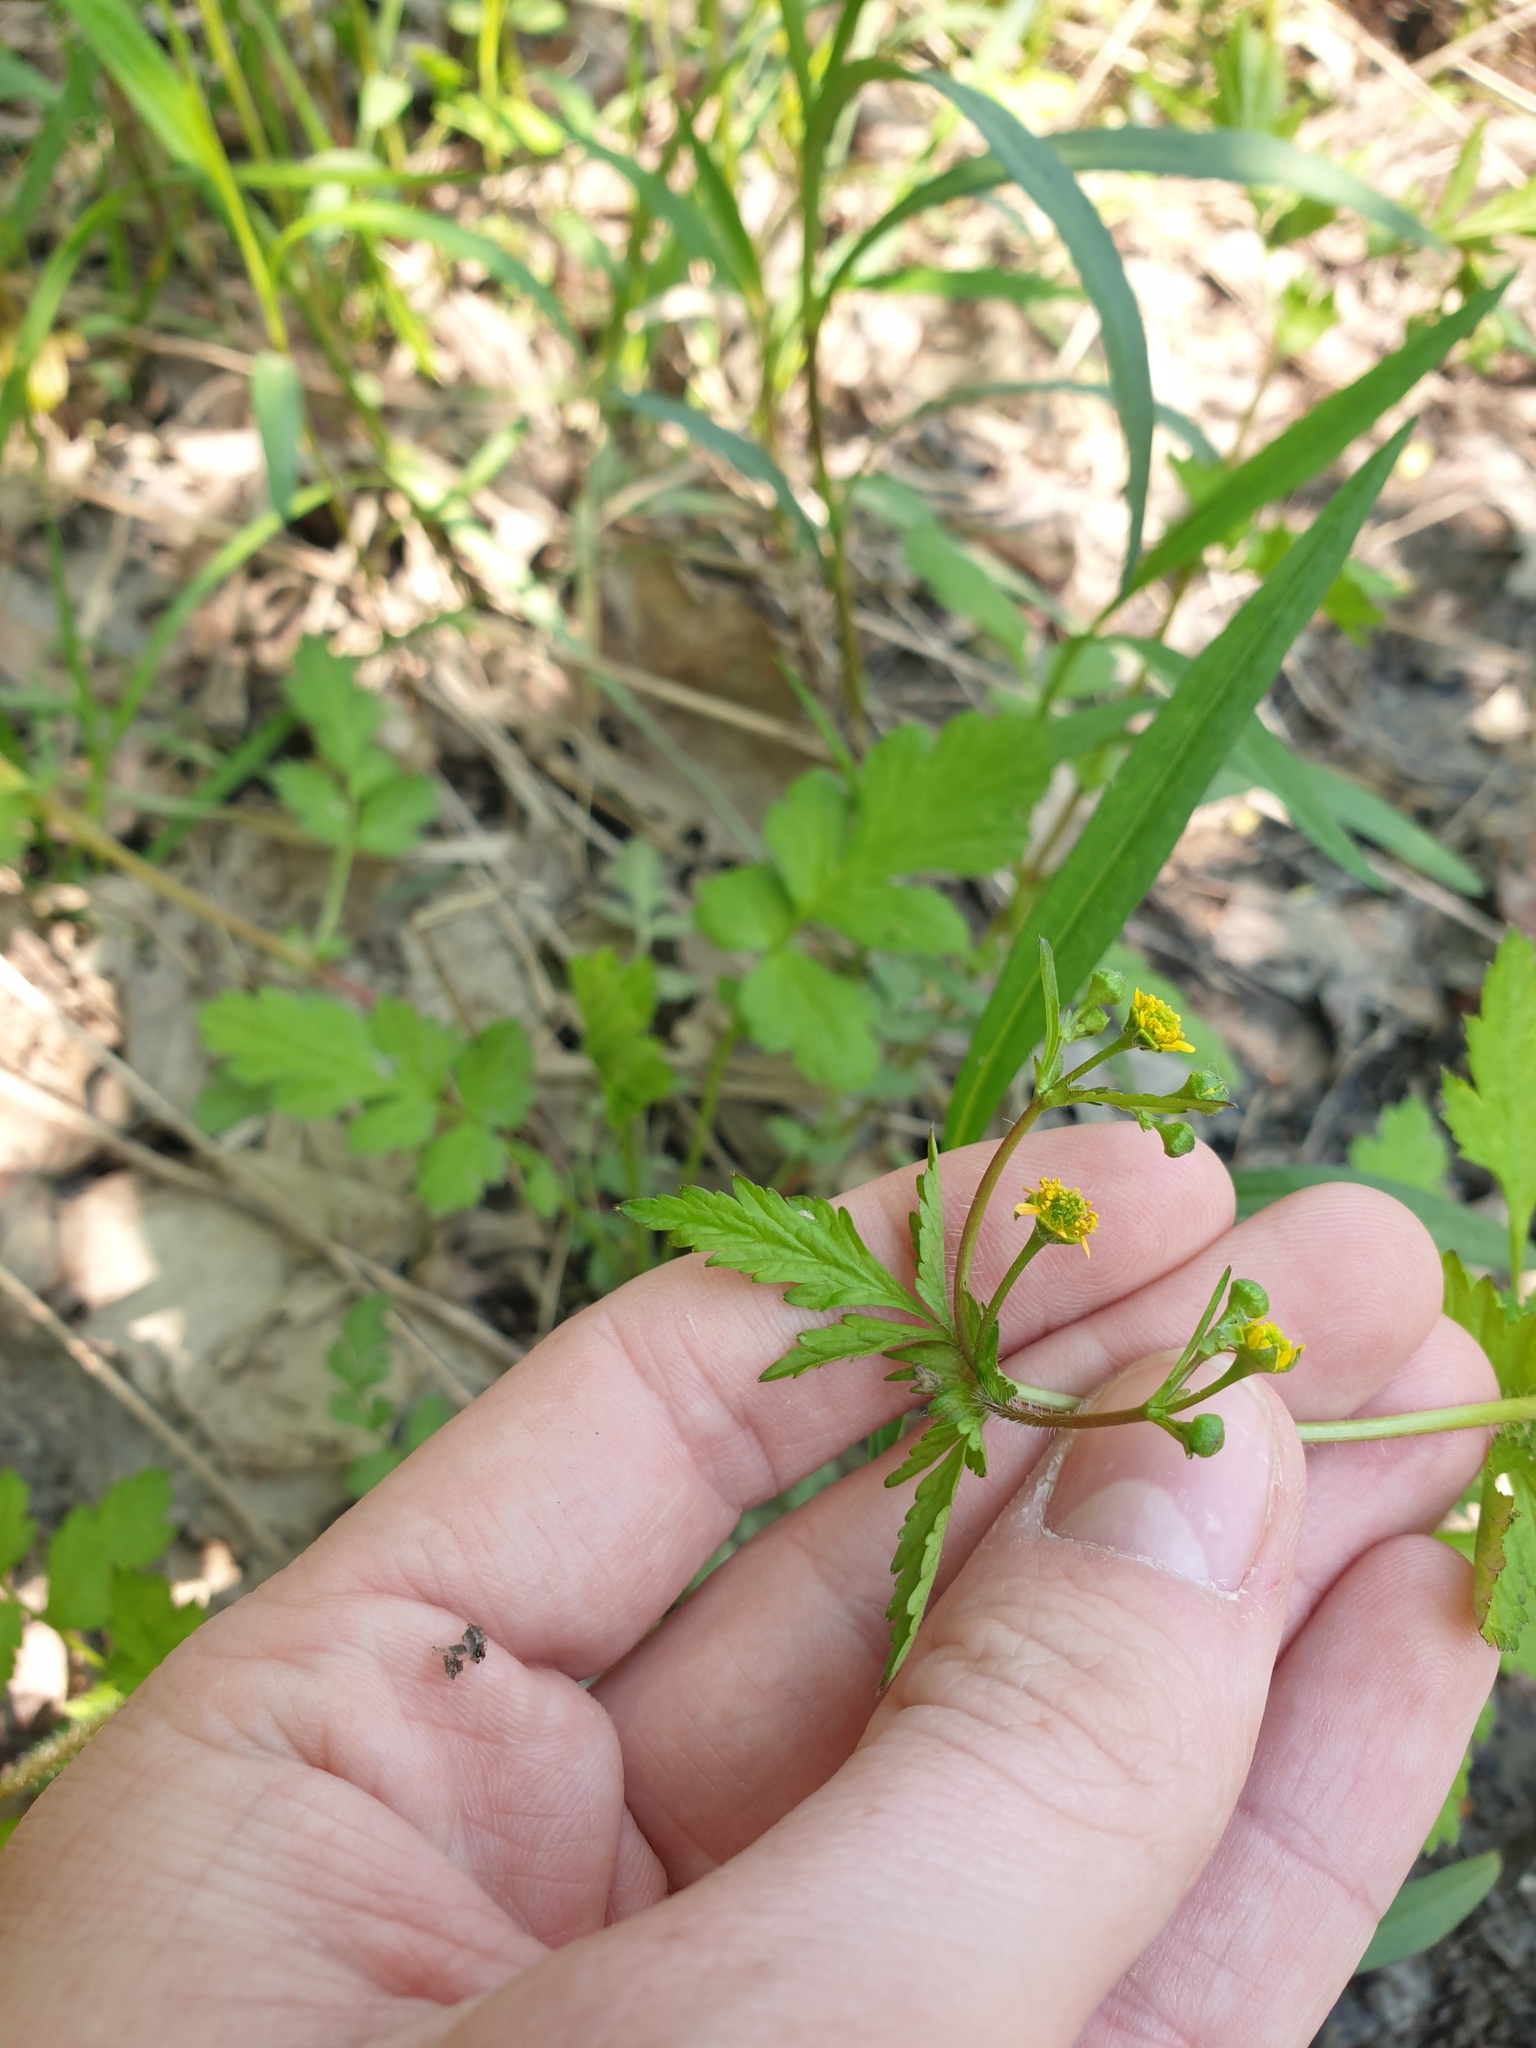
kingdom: Plantae
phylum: Tracheophyta
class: Magnoliopsida
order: Rosales
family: Rosaceae
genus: Geum
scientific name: Geum vernum
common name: Spring avens
